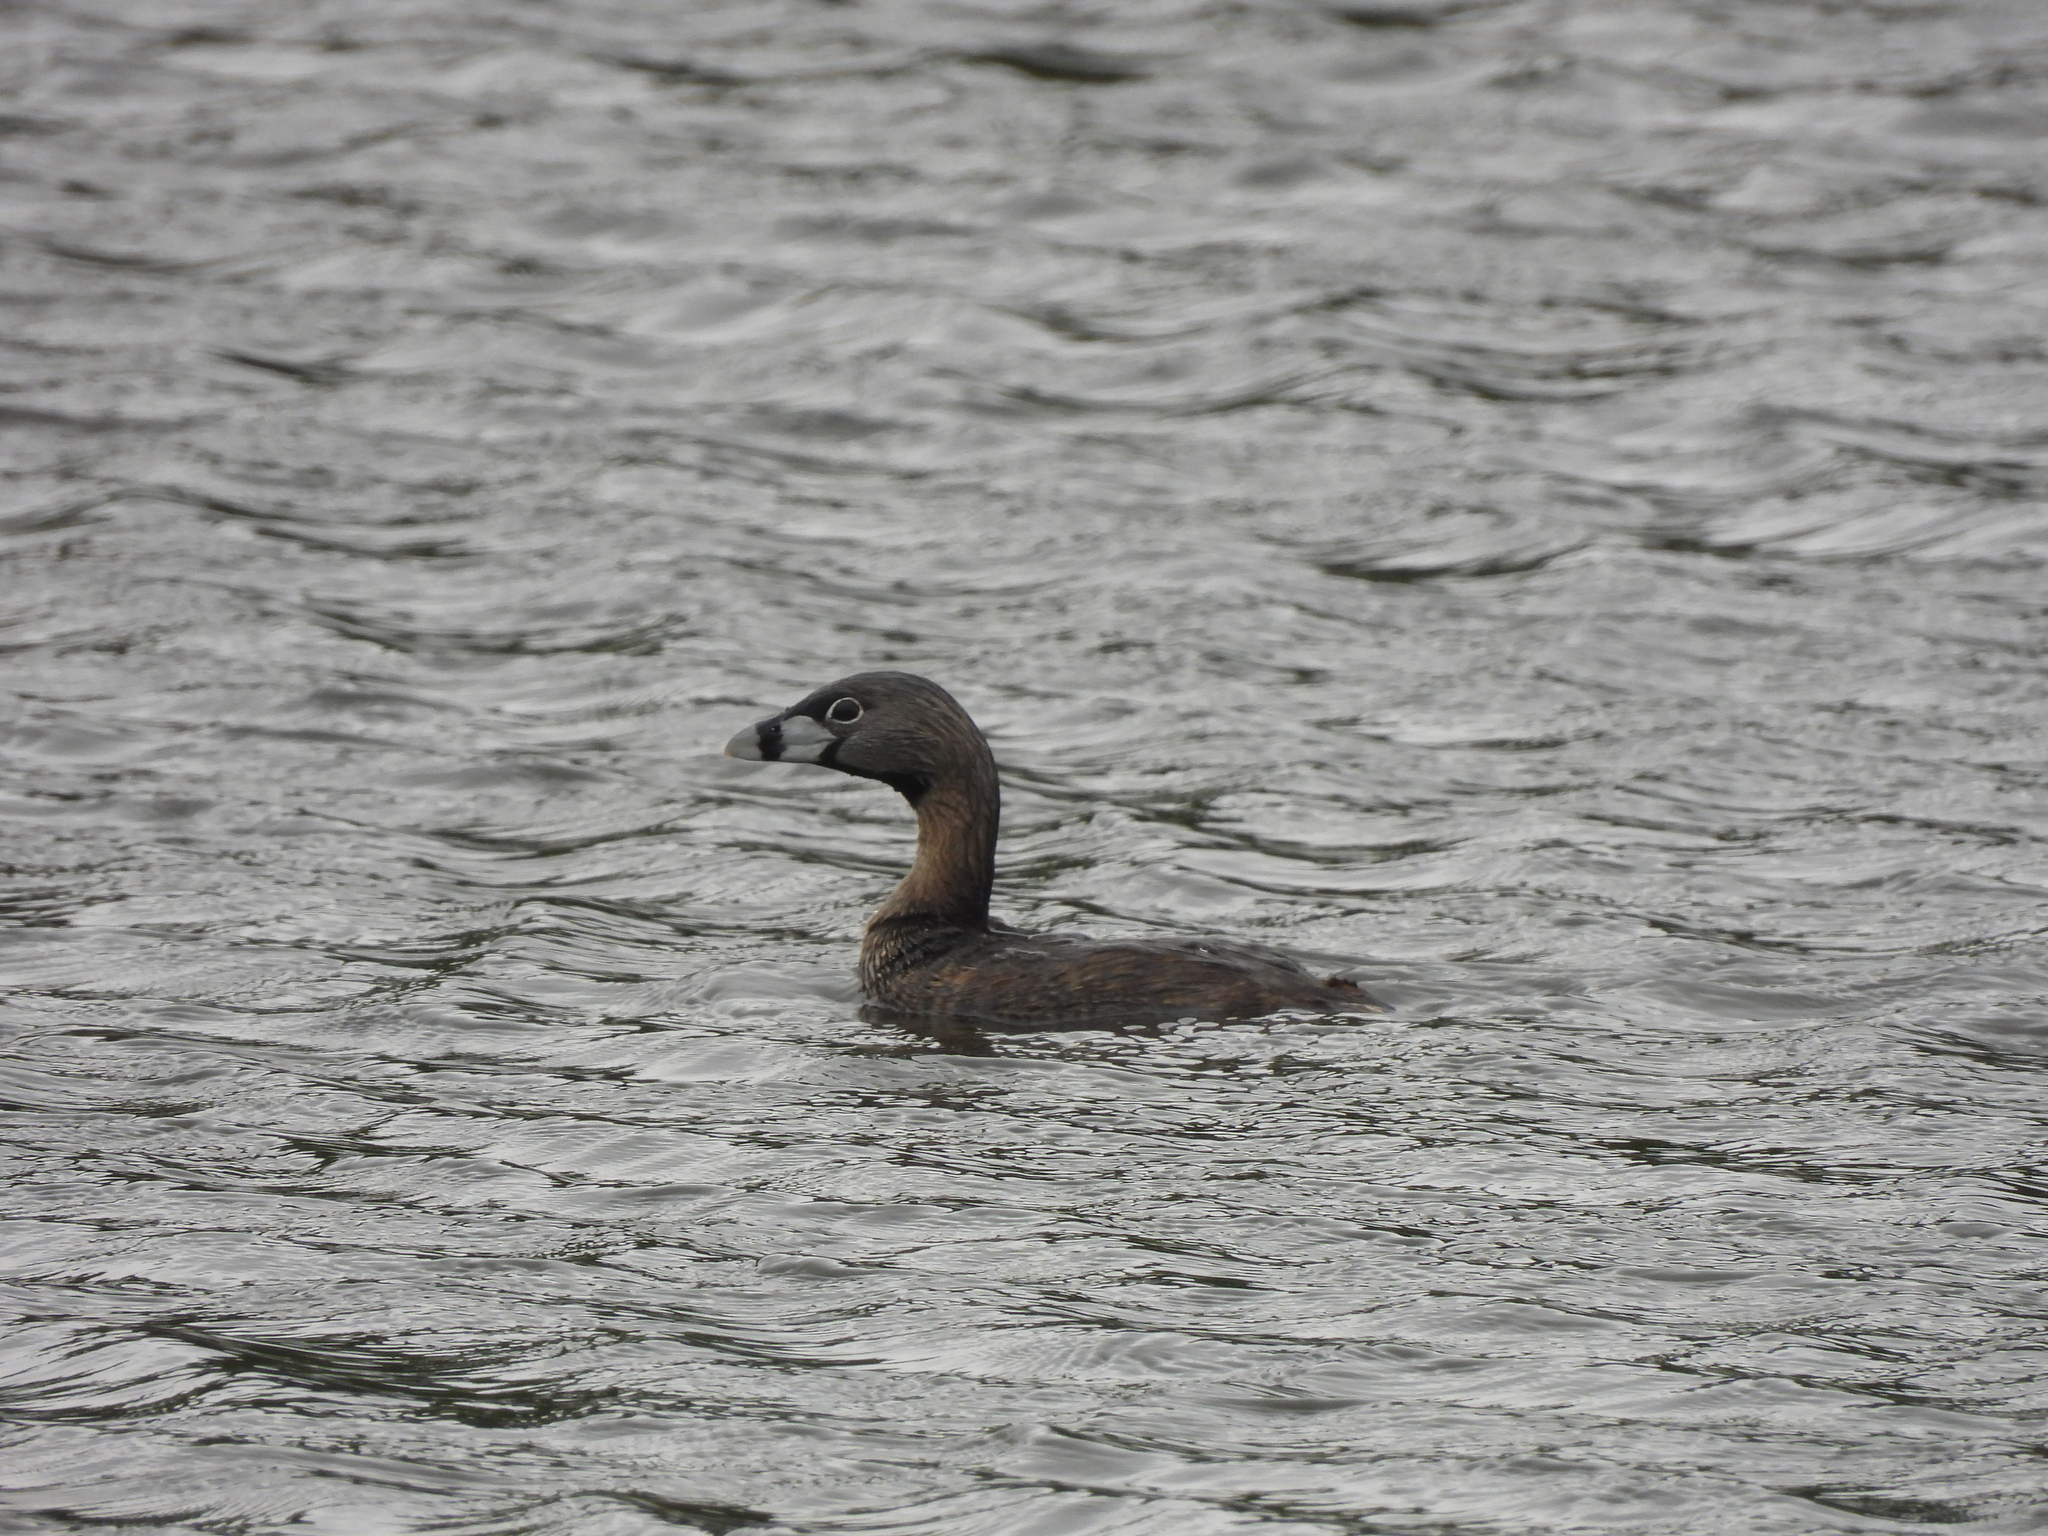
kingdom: Animalia
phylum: Chordata
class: Aves
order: Podicipediformes
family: Podicipedidae
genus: Podilymbus
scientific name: Podilymbus podiceps
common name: Pied-billed grebe
